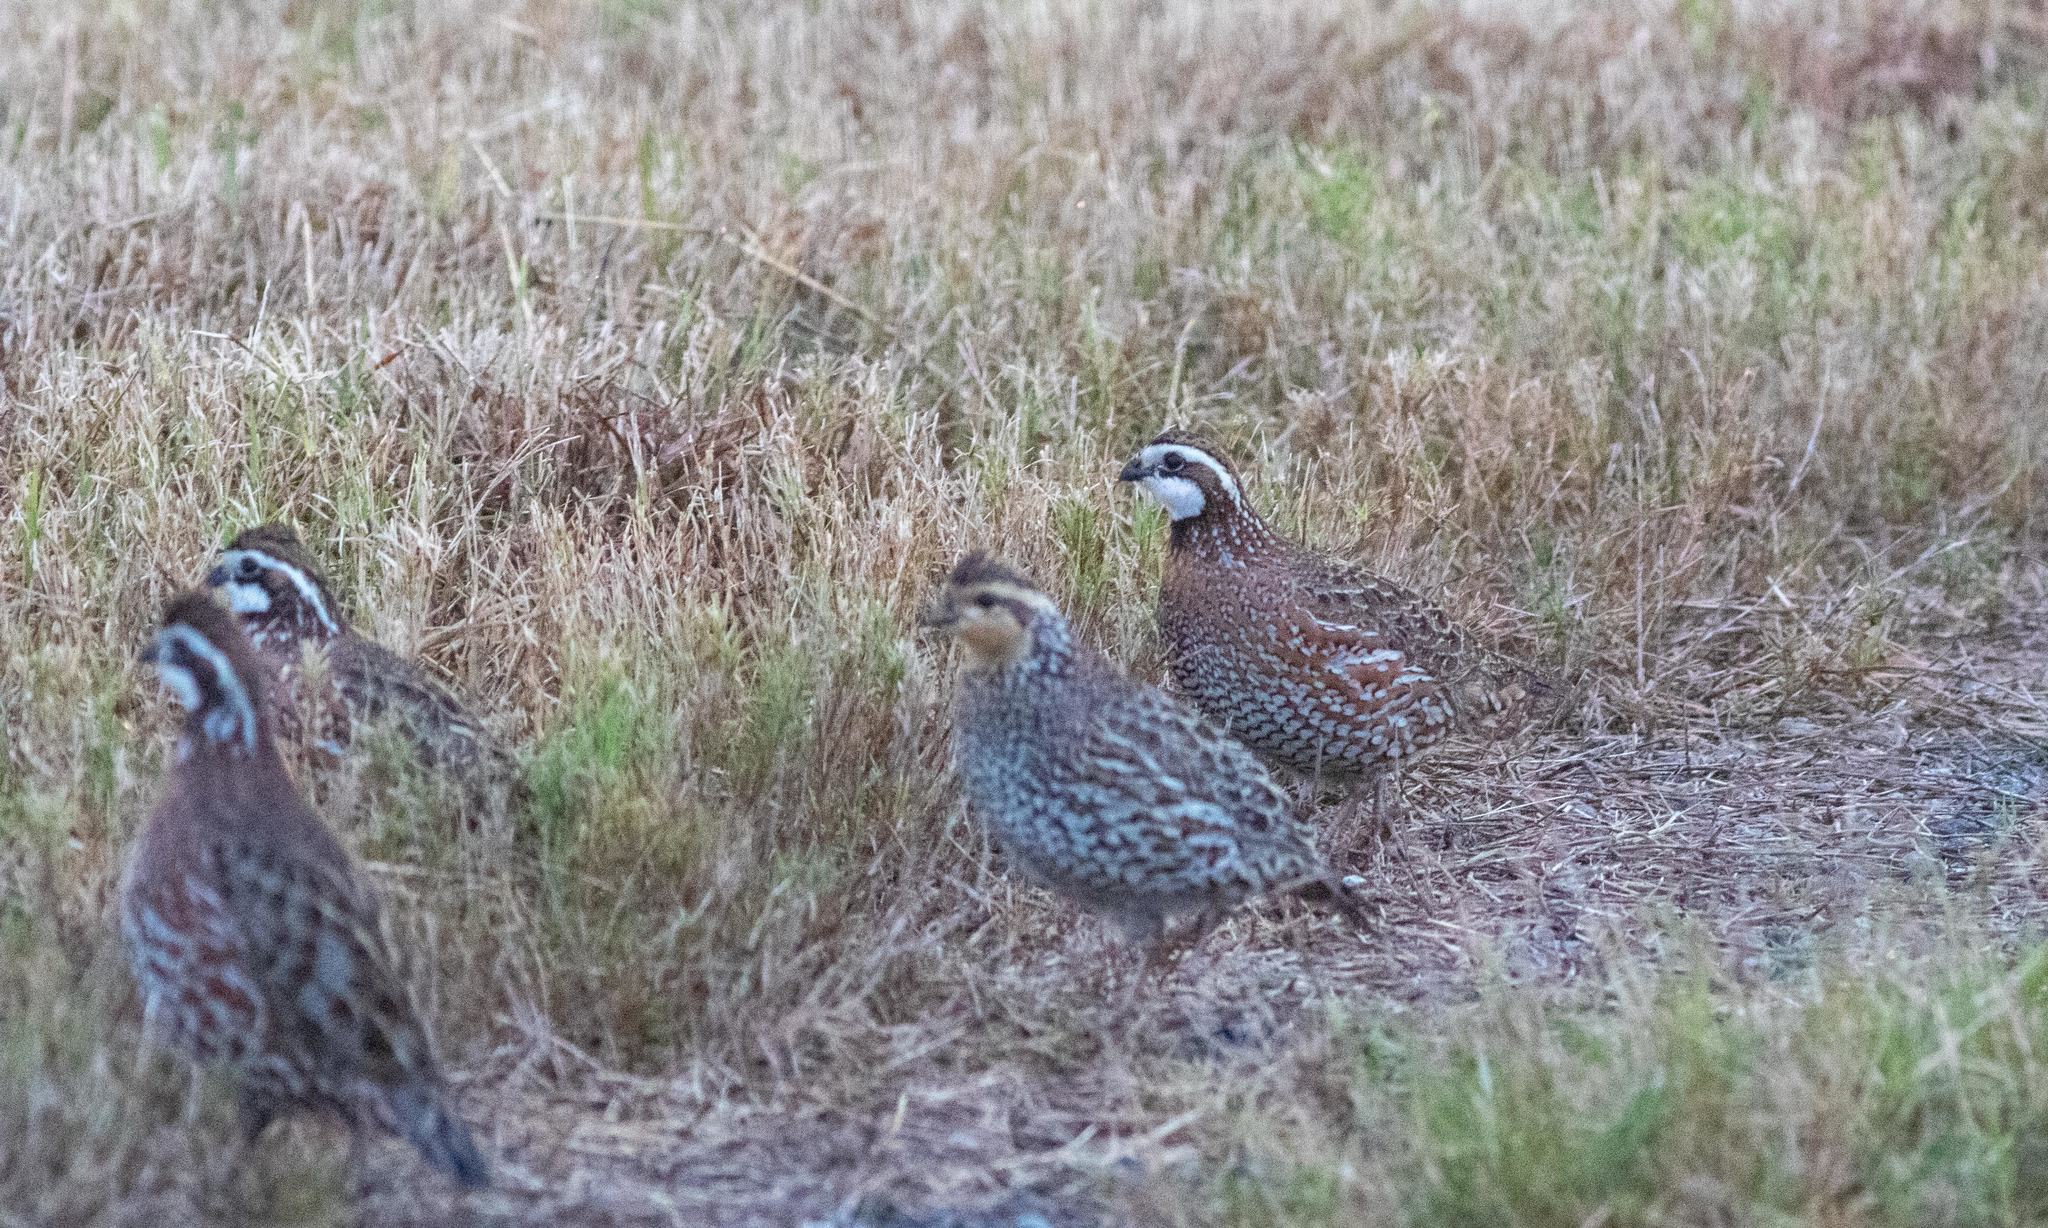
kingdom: Animalia
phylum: Chordata
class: Aves
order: Galliformes
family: Odontophoridae
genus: Colinus
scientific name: Colinus virginianus
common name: Northern bobwhite
